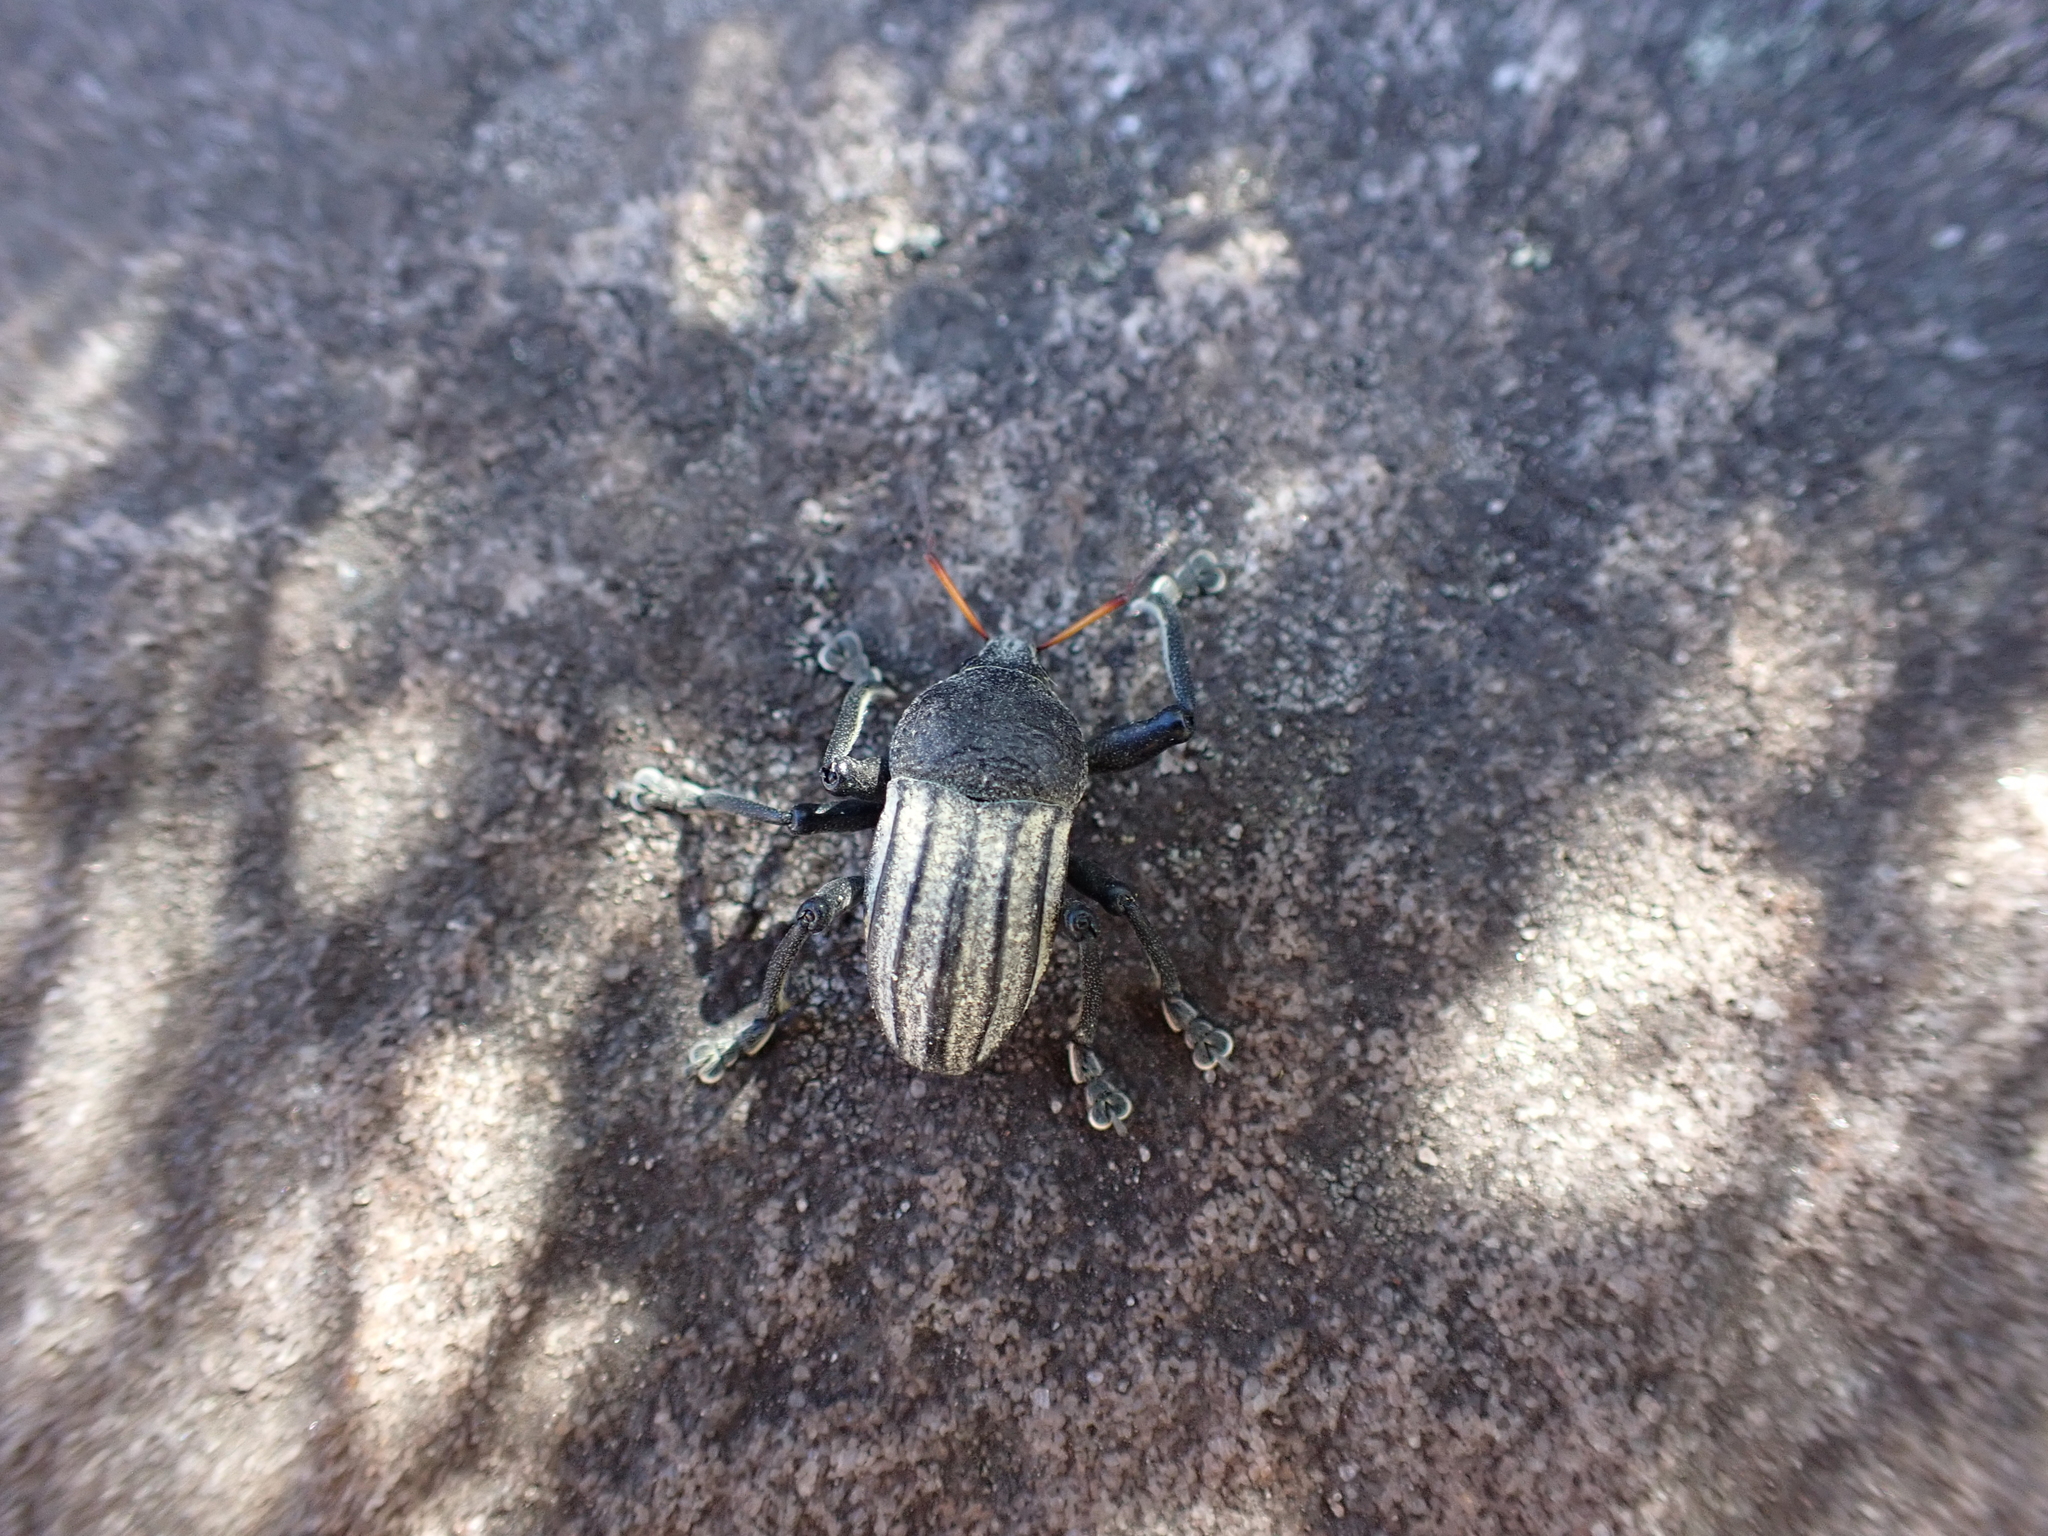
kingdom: Animalia
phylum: Arthropoda
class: Insecta
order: Coleoptera
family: Curculionidae
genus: Psapharus
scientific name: Psapharus ruficornis
